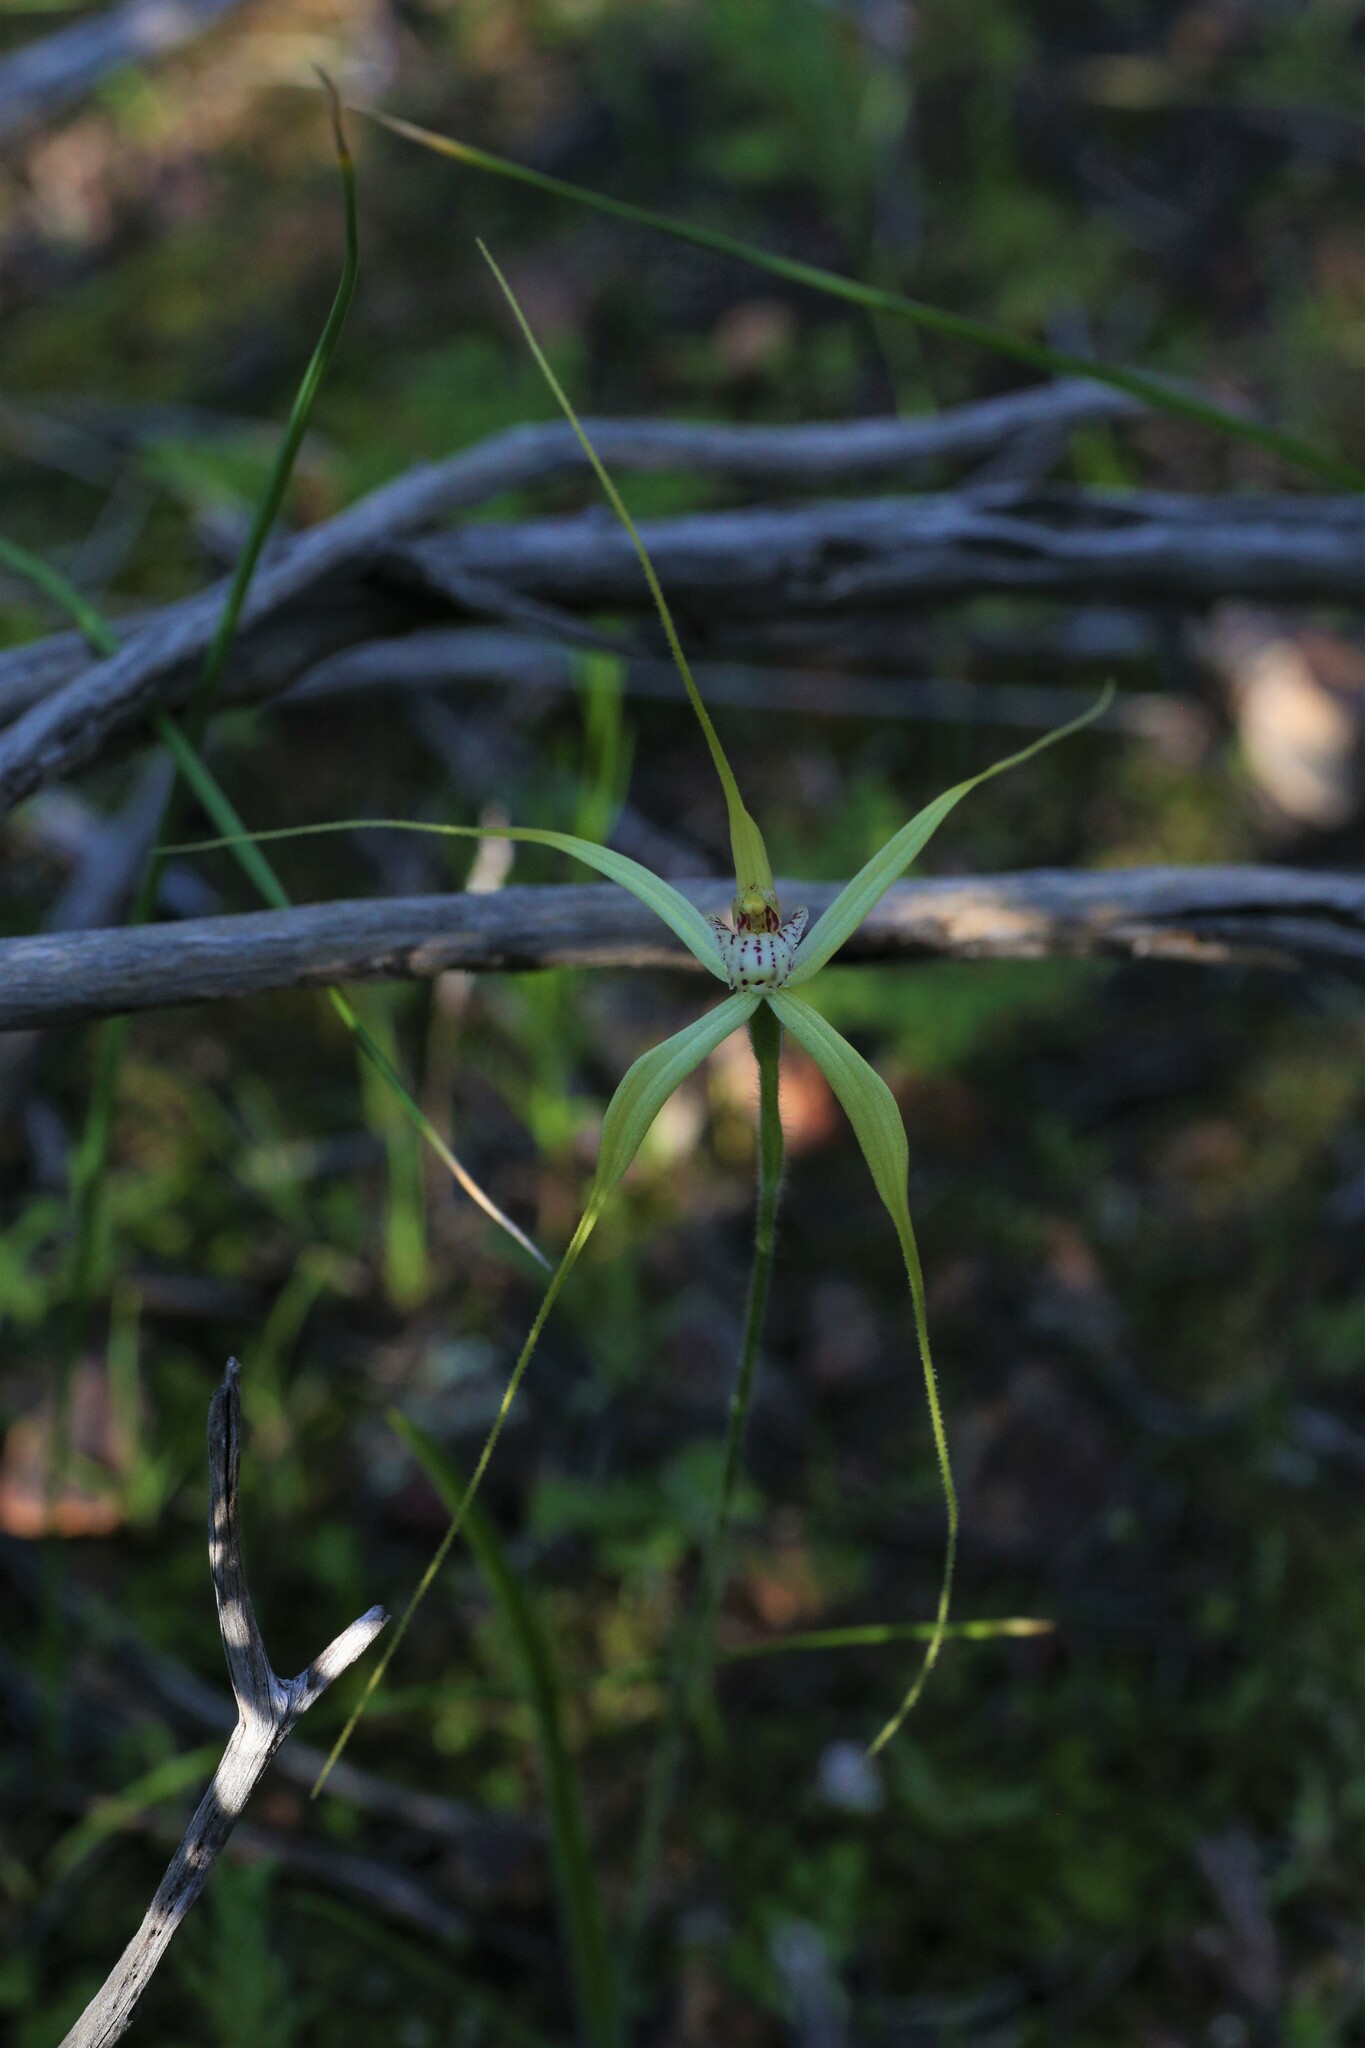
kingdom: Plantae
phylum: Tracheophyta
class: Liliopsida
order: Asparagales
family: Orchidaceae
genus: Caladenia
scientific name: Caladenia elegans
